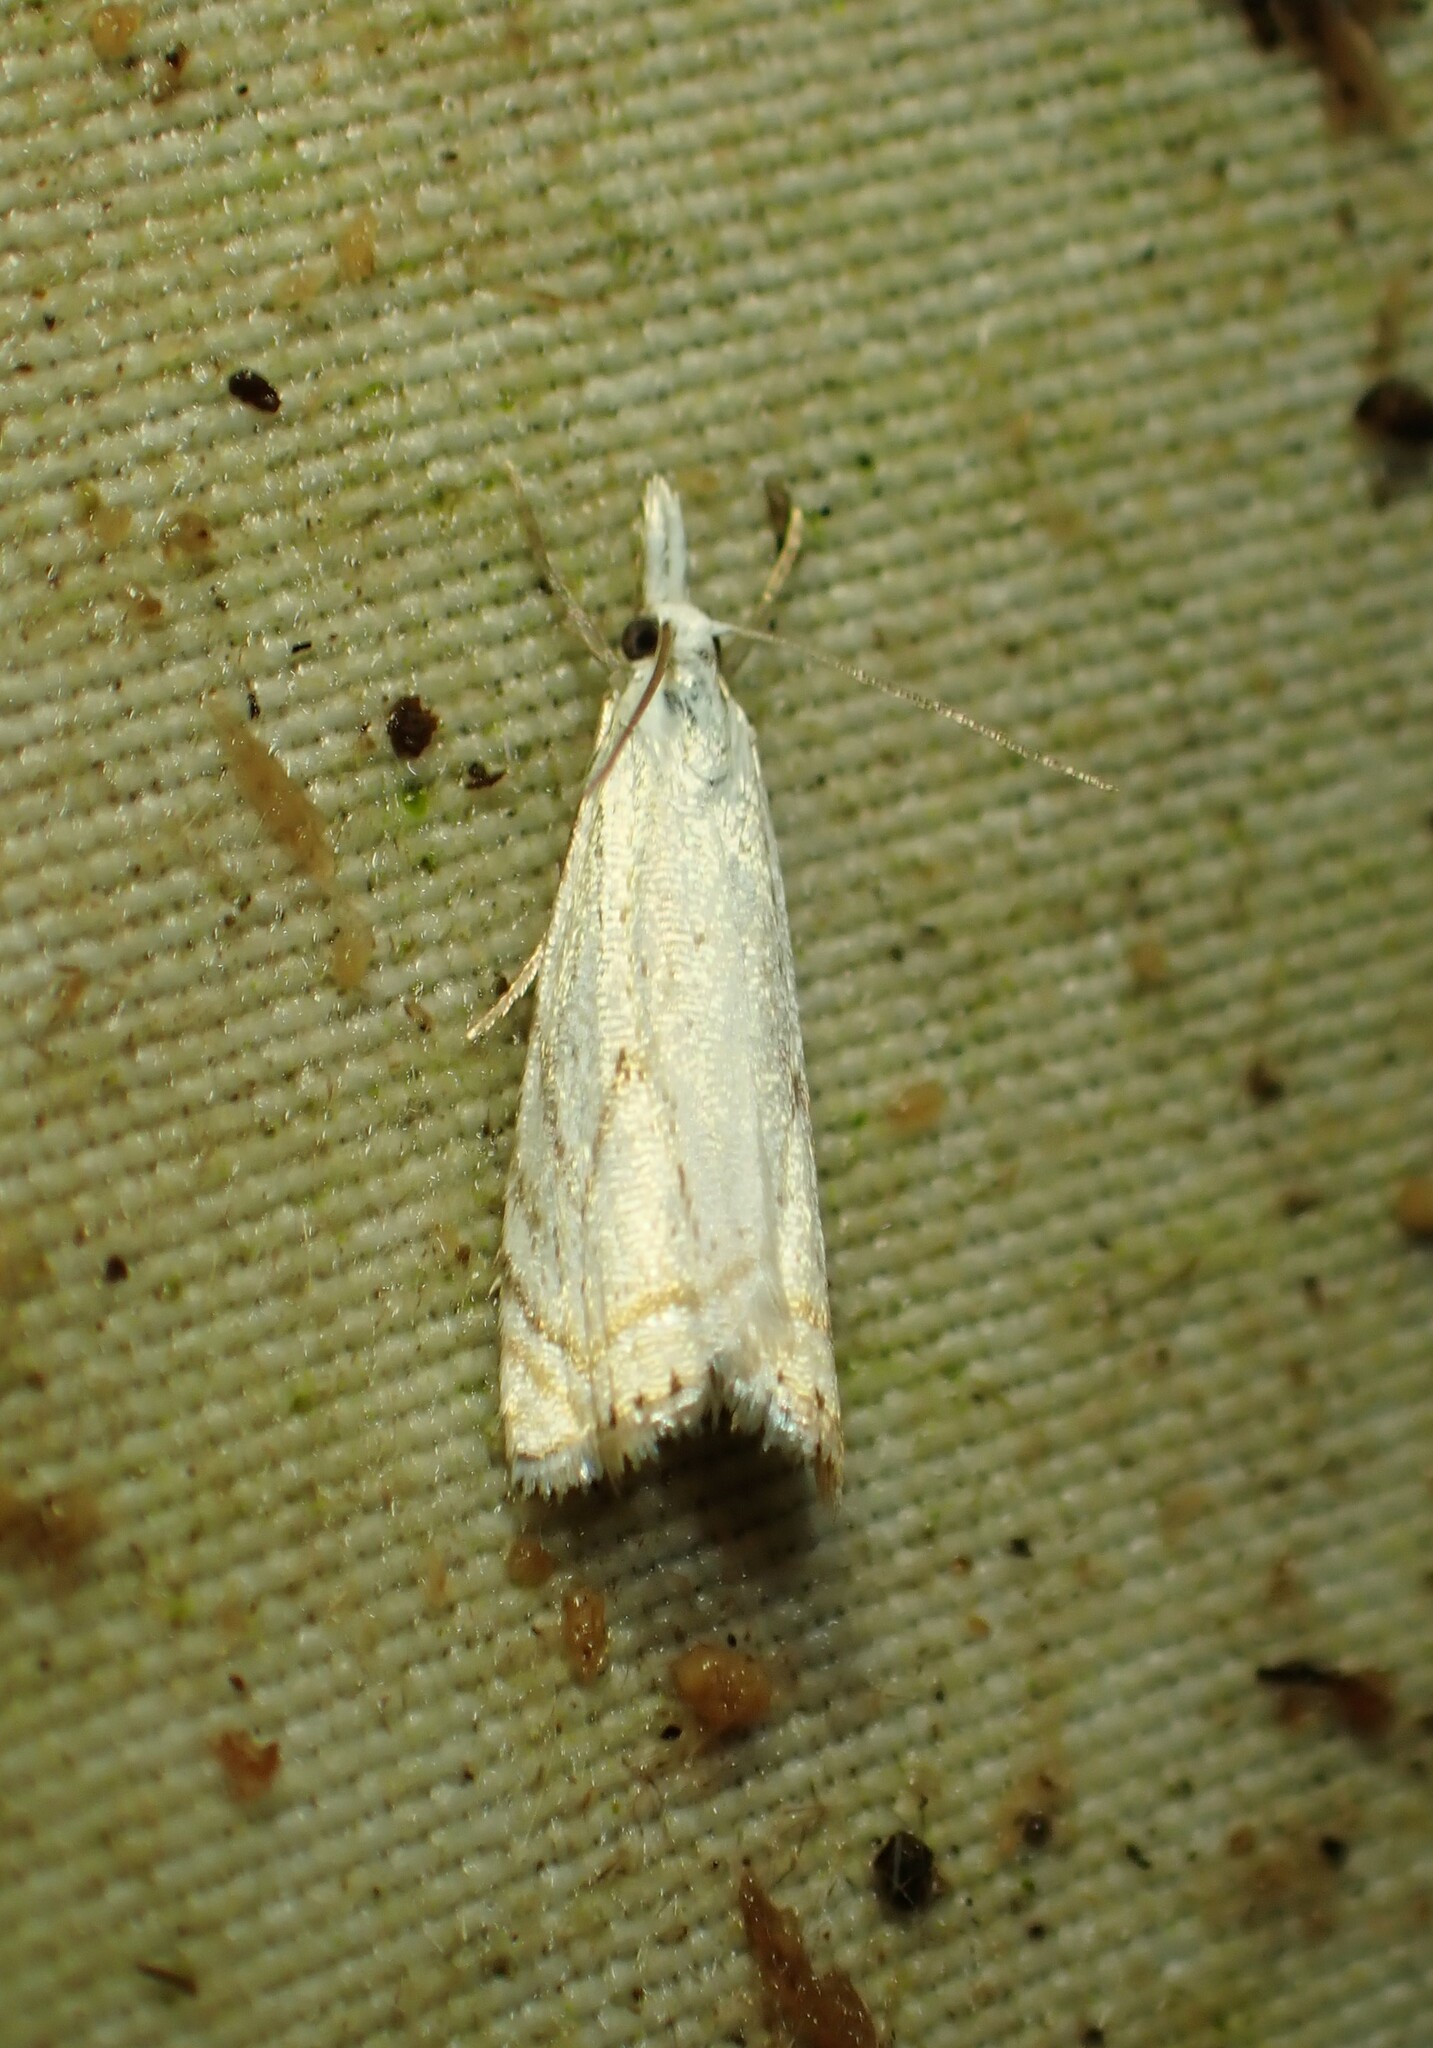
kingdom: Animalia
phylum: Arthropoda
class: Insecta
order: Lepidoptera
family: Crambidae
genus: Crambus
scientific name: Crambus albellus
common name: Small white grass-veneer
